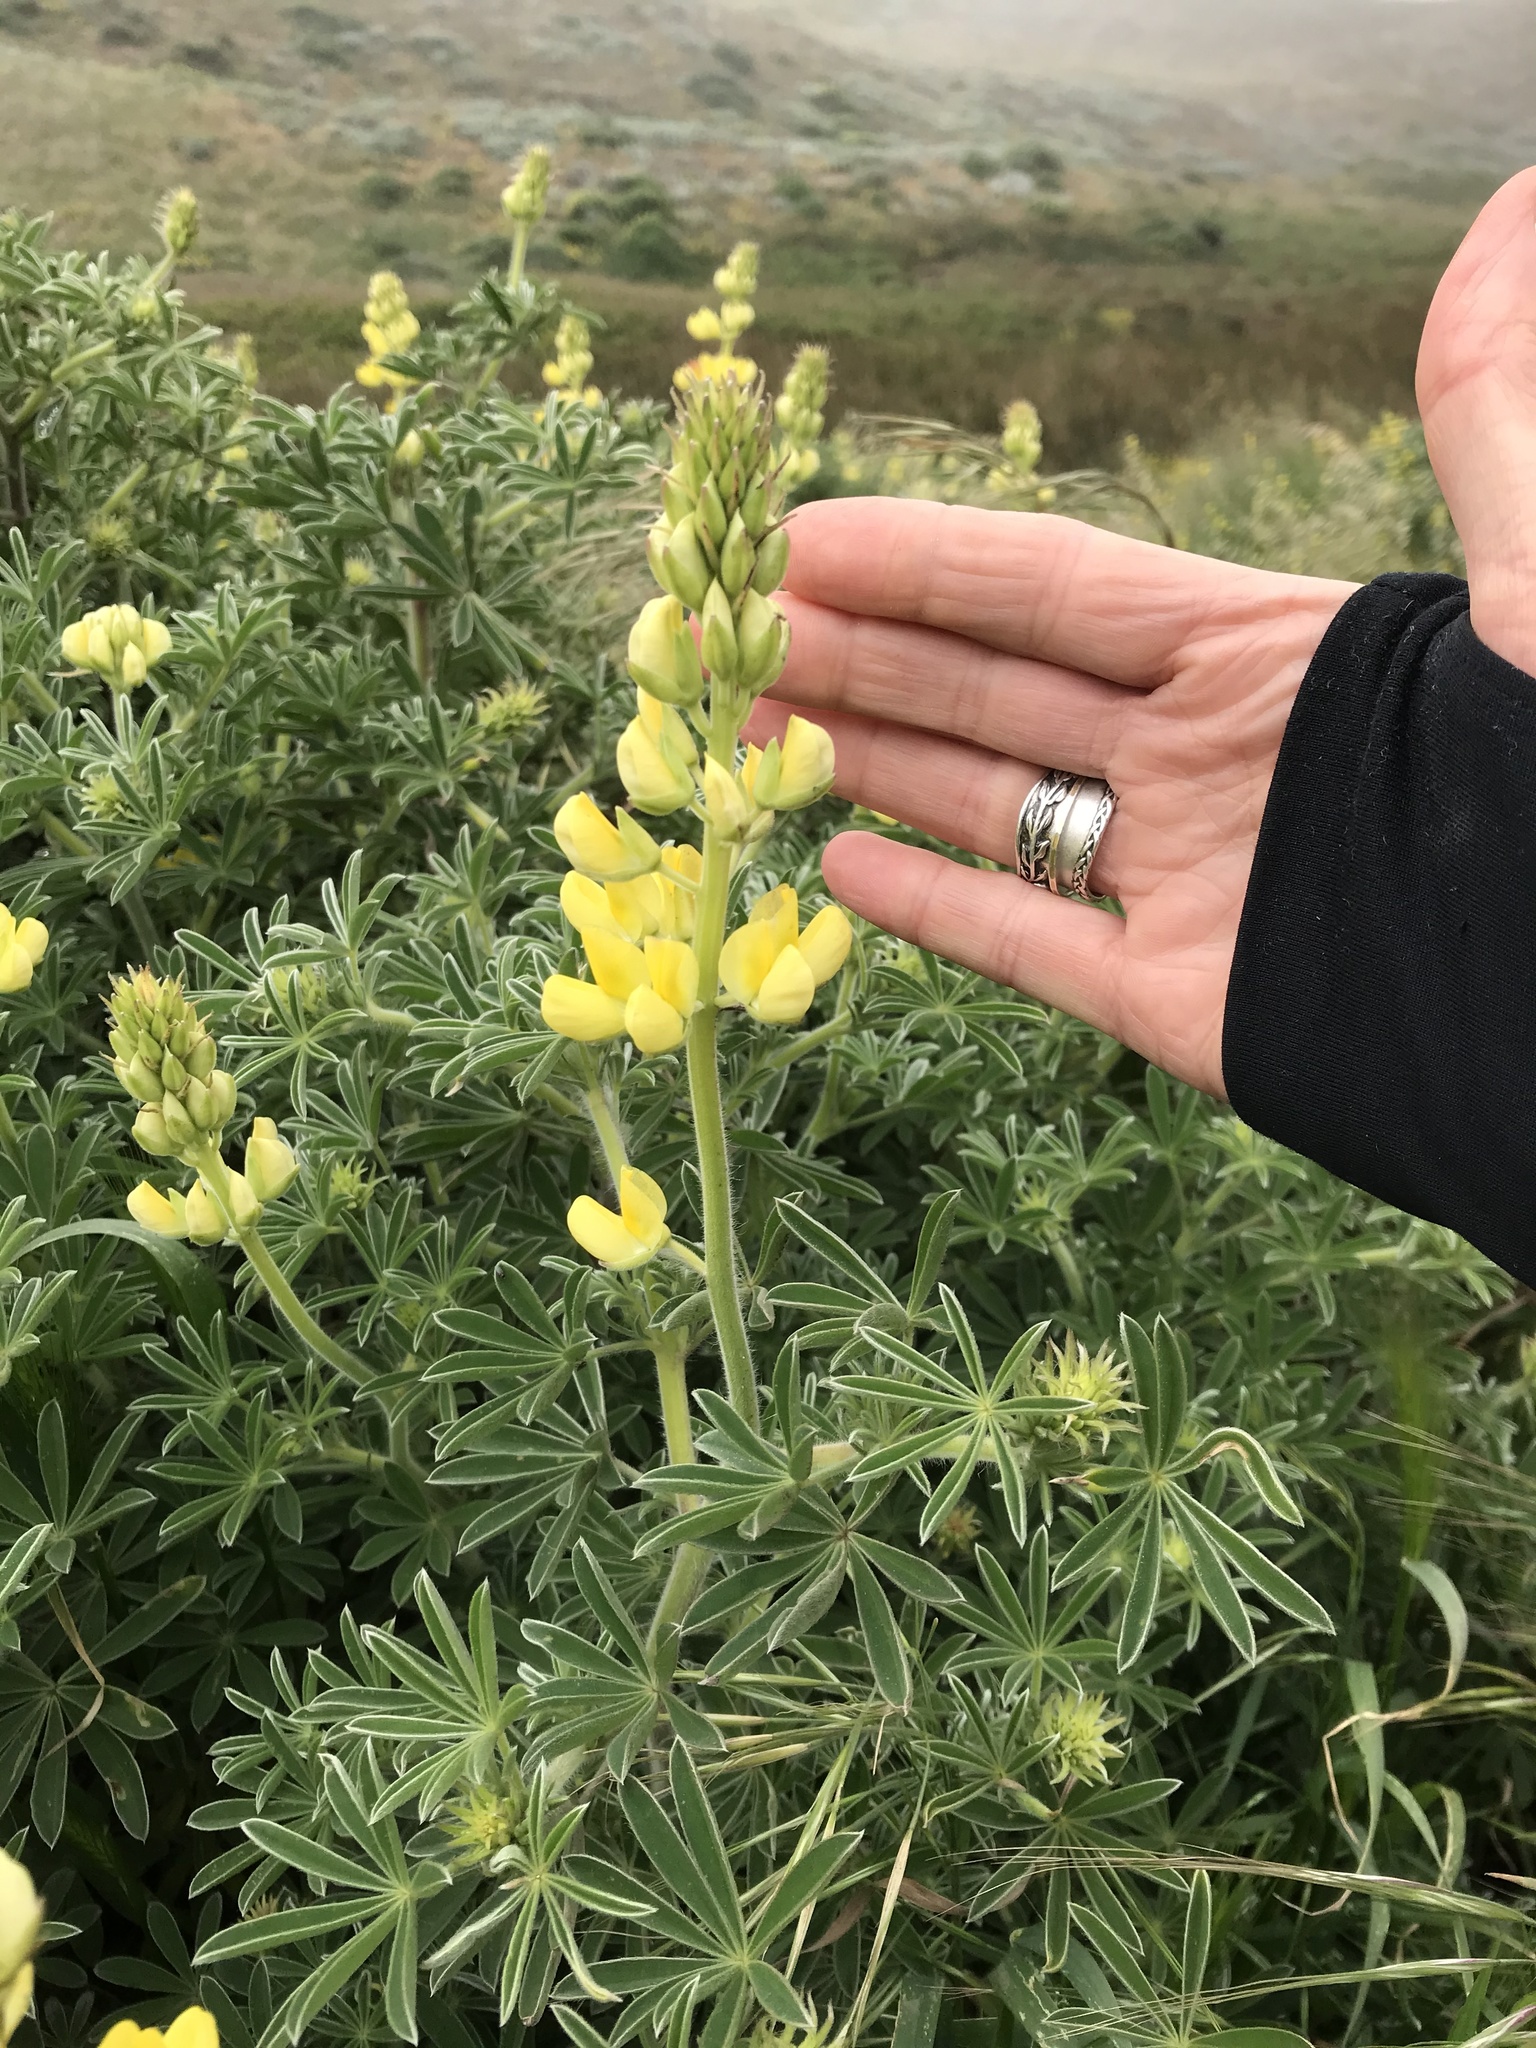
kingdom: Plantae
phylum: Tracheophyta
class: Magnoliopsida
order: Fabales
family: Fabaceae
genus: Lupinus
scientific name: Lupinus arboreus
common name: Yellow bush lupine
